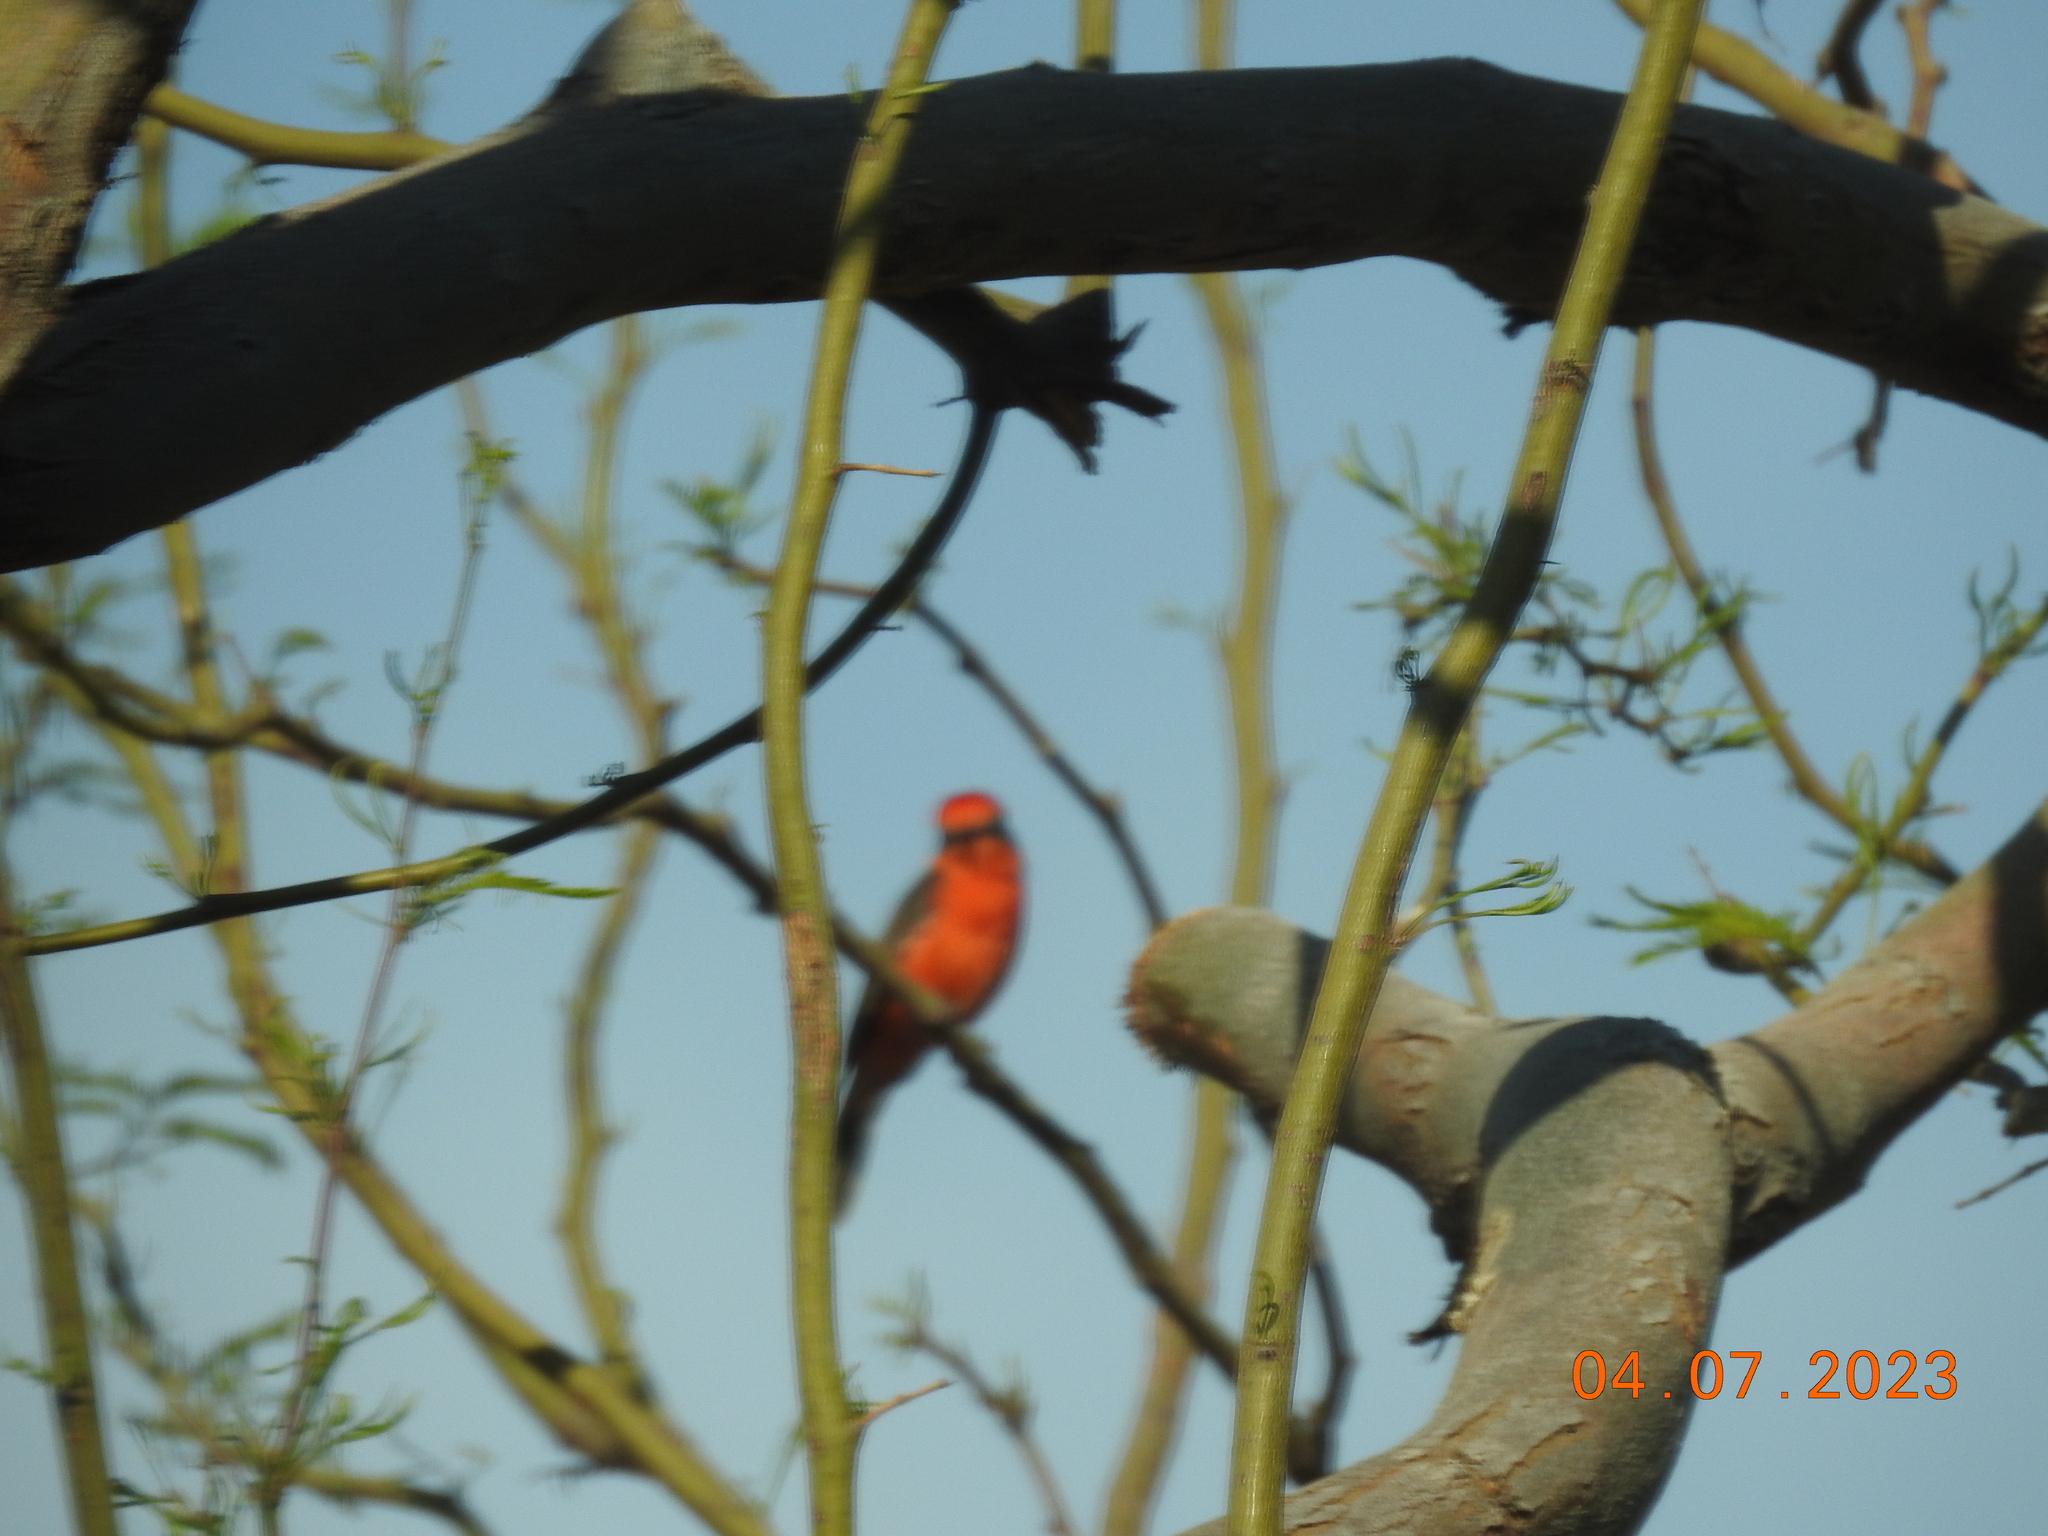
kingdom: Animalia
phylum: Chordata
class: Aves
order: Passeriformes
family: Tyrannidae
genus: Pyrocephalus
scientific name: Pyrocephalus rubinus
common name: Vermilion flycatcher
